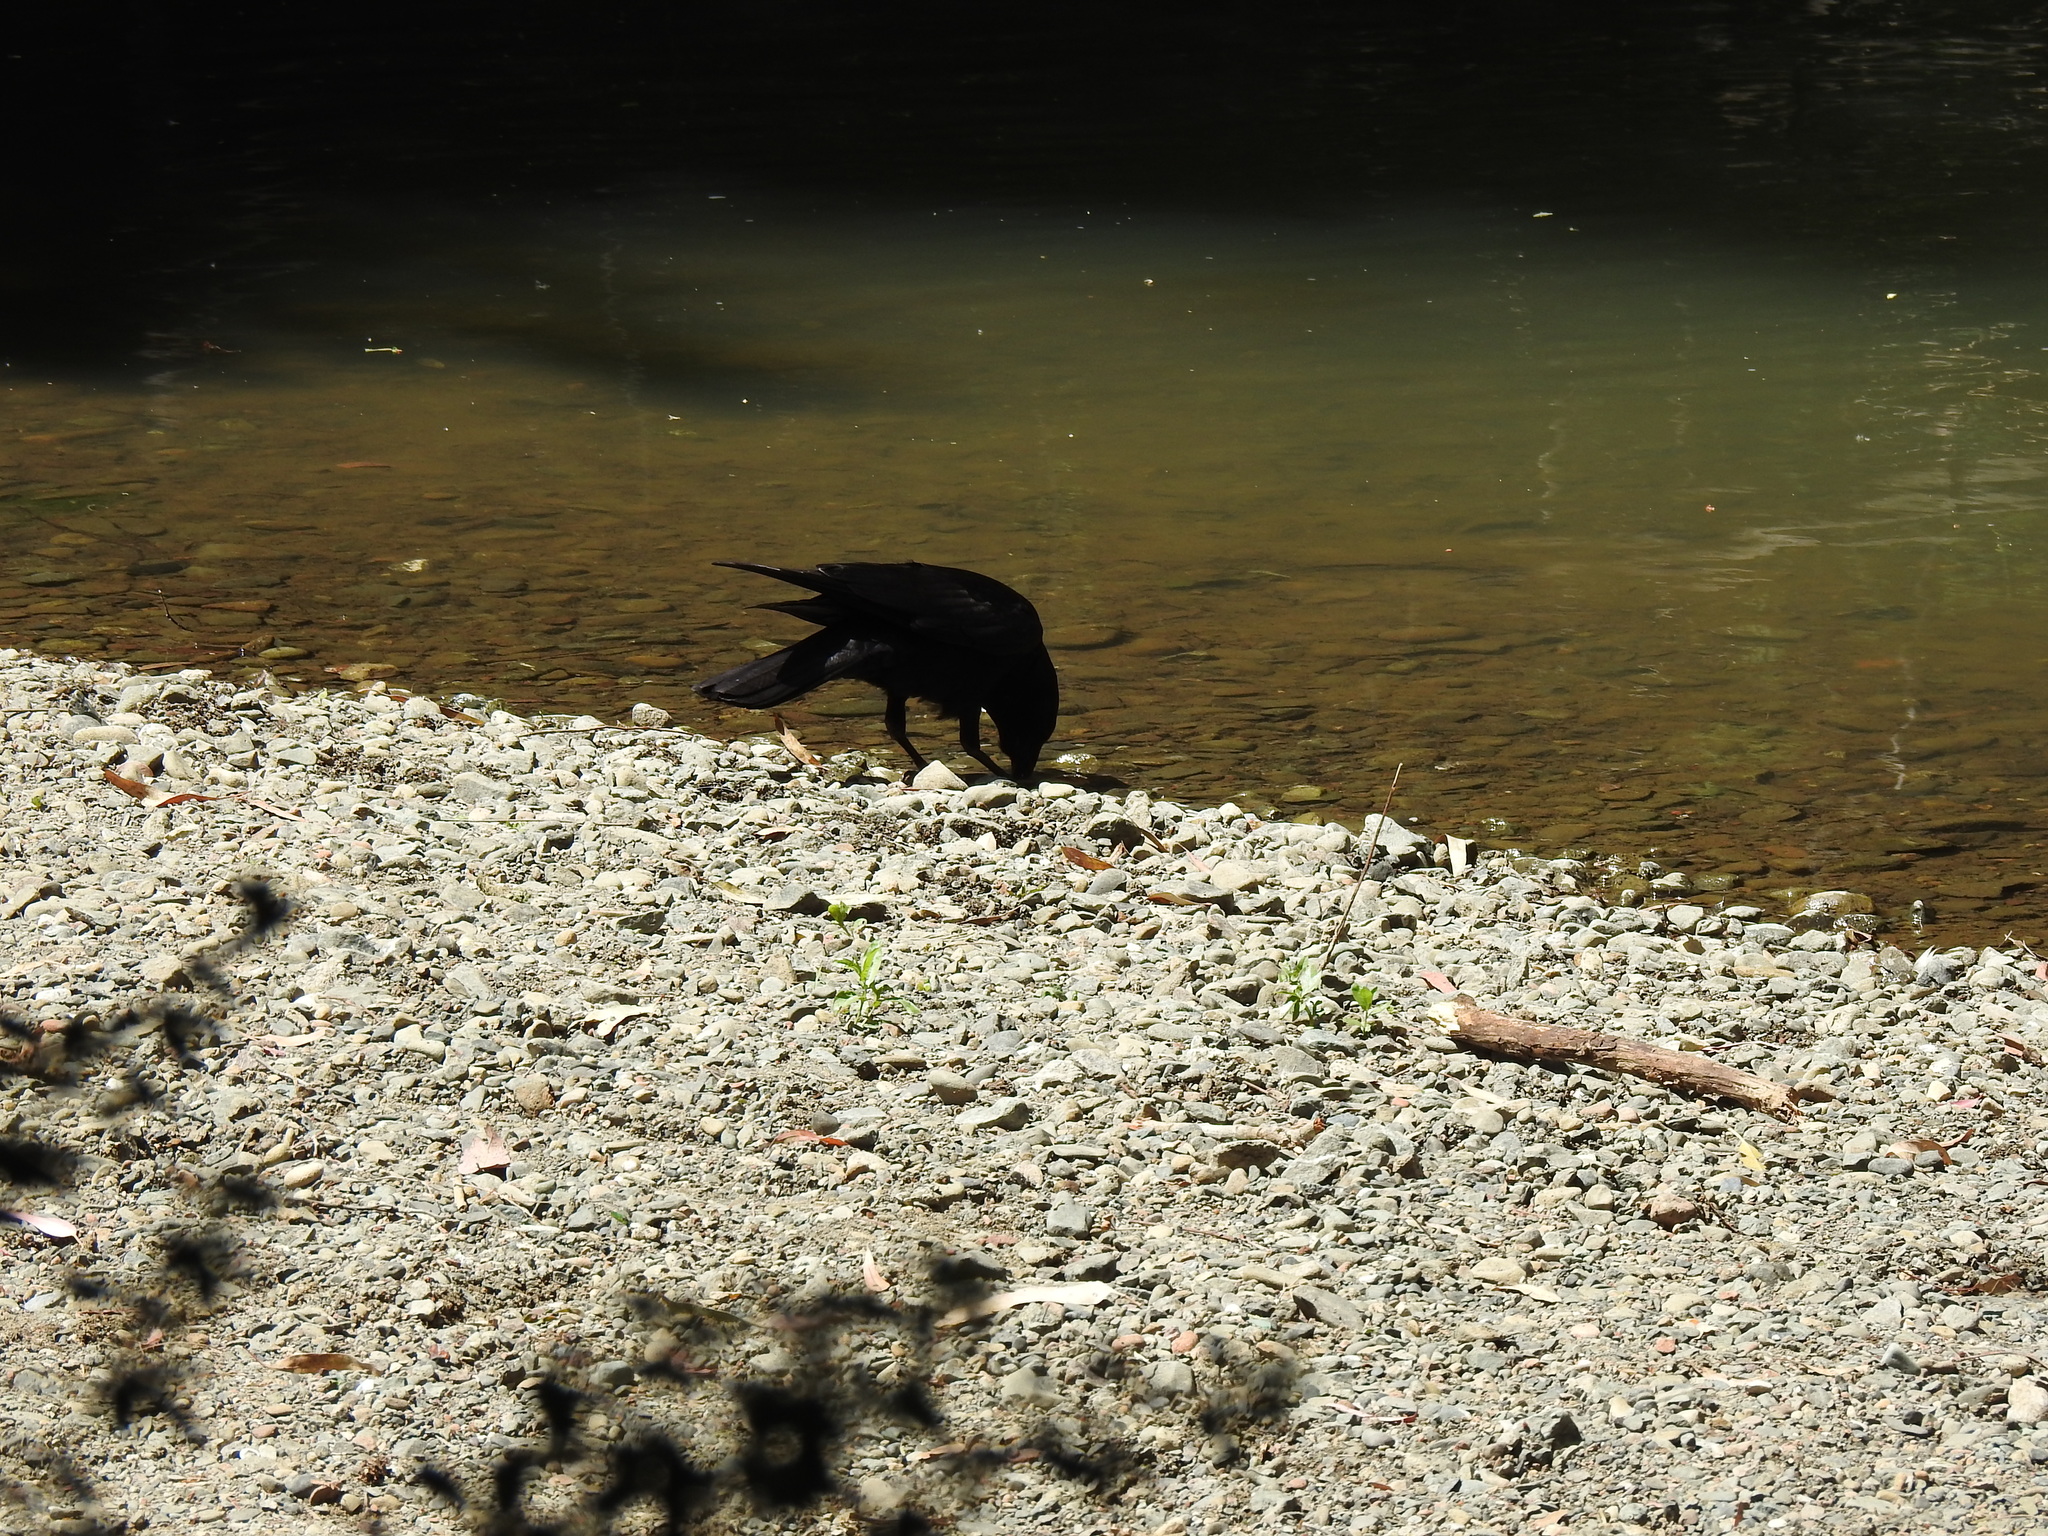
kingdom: Animalia
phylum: Chordata
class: Aves
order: Passeriformes
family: Corvidae
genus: Corvus
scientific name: Corvus brachyrhynchos
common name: American crow
